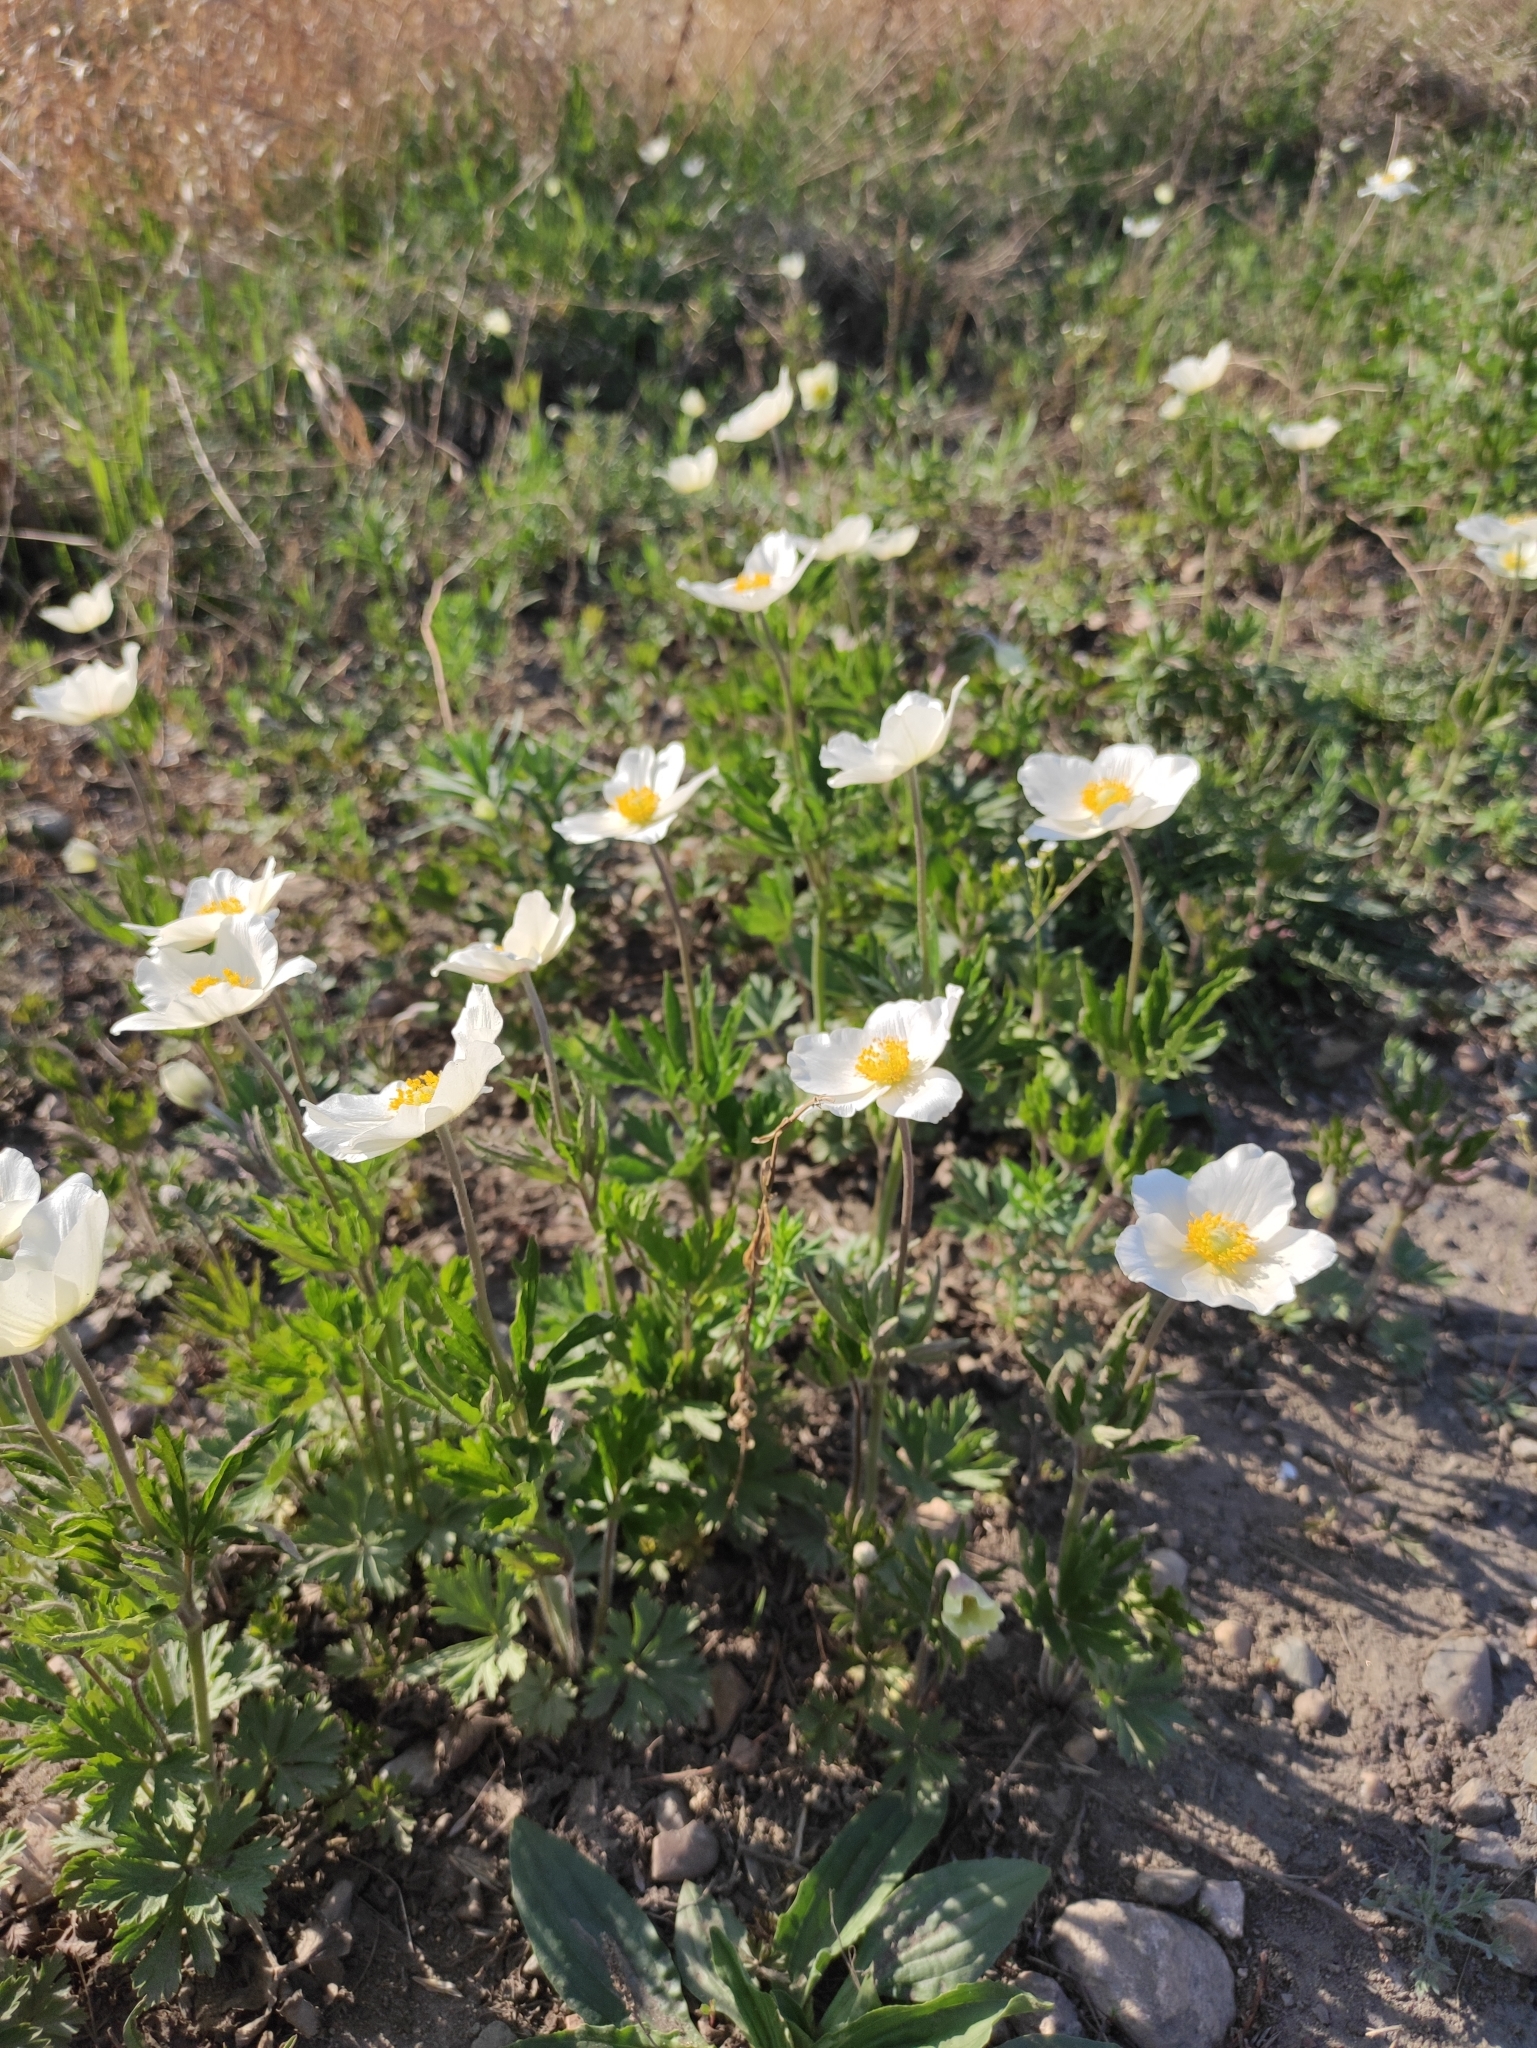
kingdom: Plantae
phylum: Tracheophyta
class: Magnoliopsida
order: Ranunculales
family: Ranunculaceae
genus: Anemone
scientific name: Anemone sylvestris
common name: Snowdrop anemone
